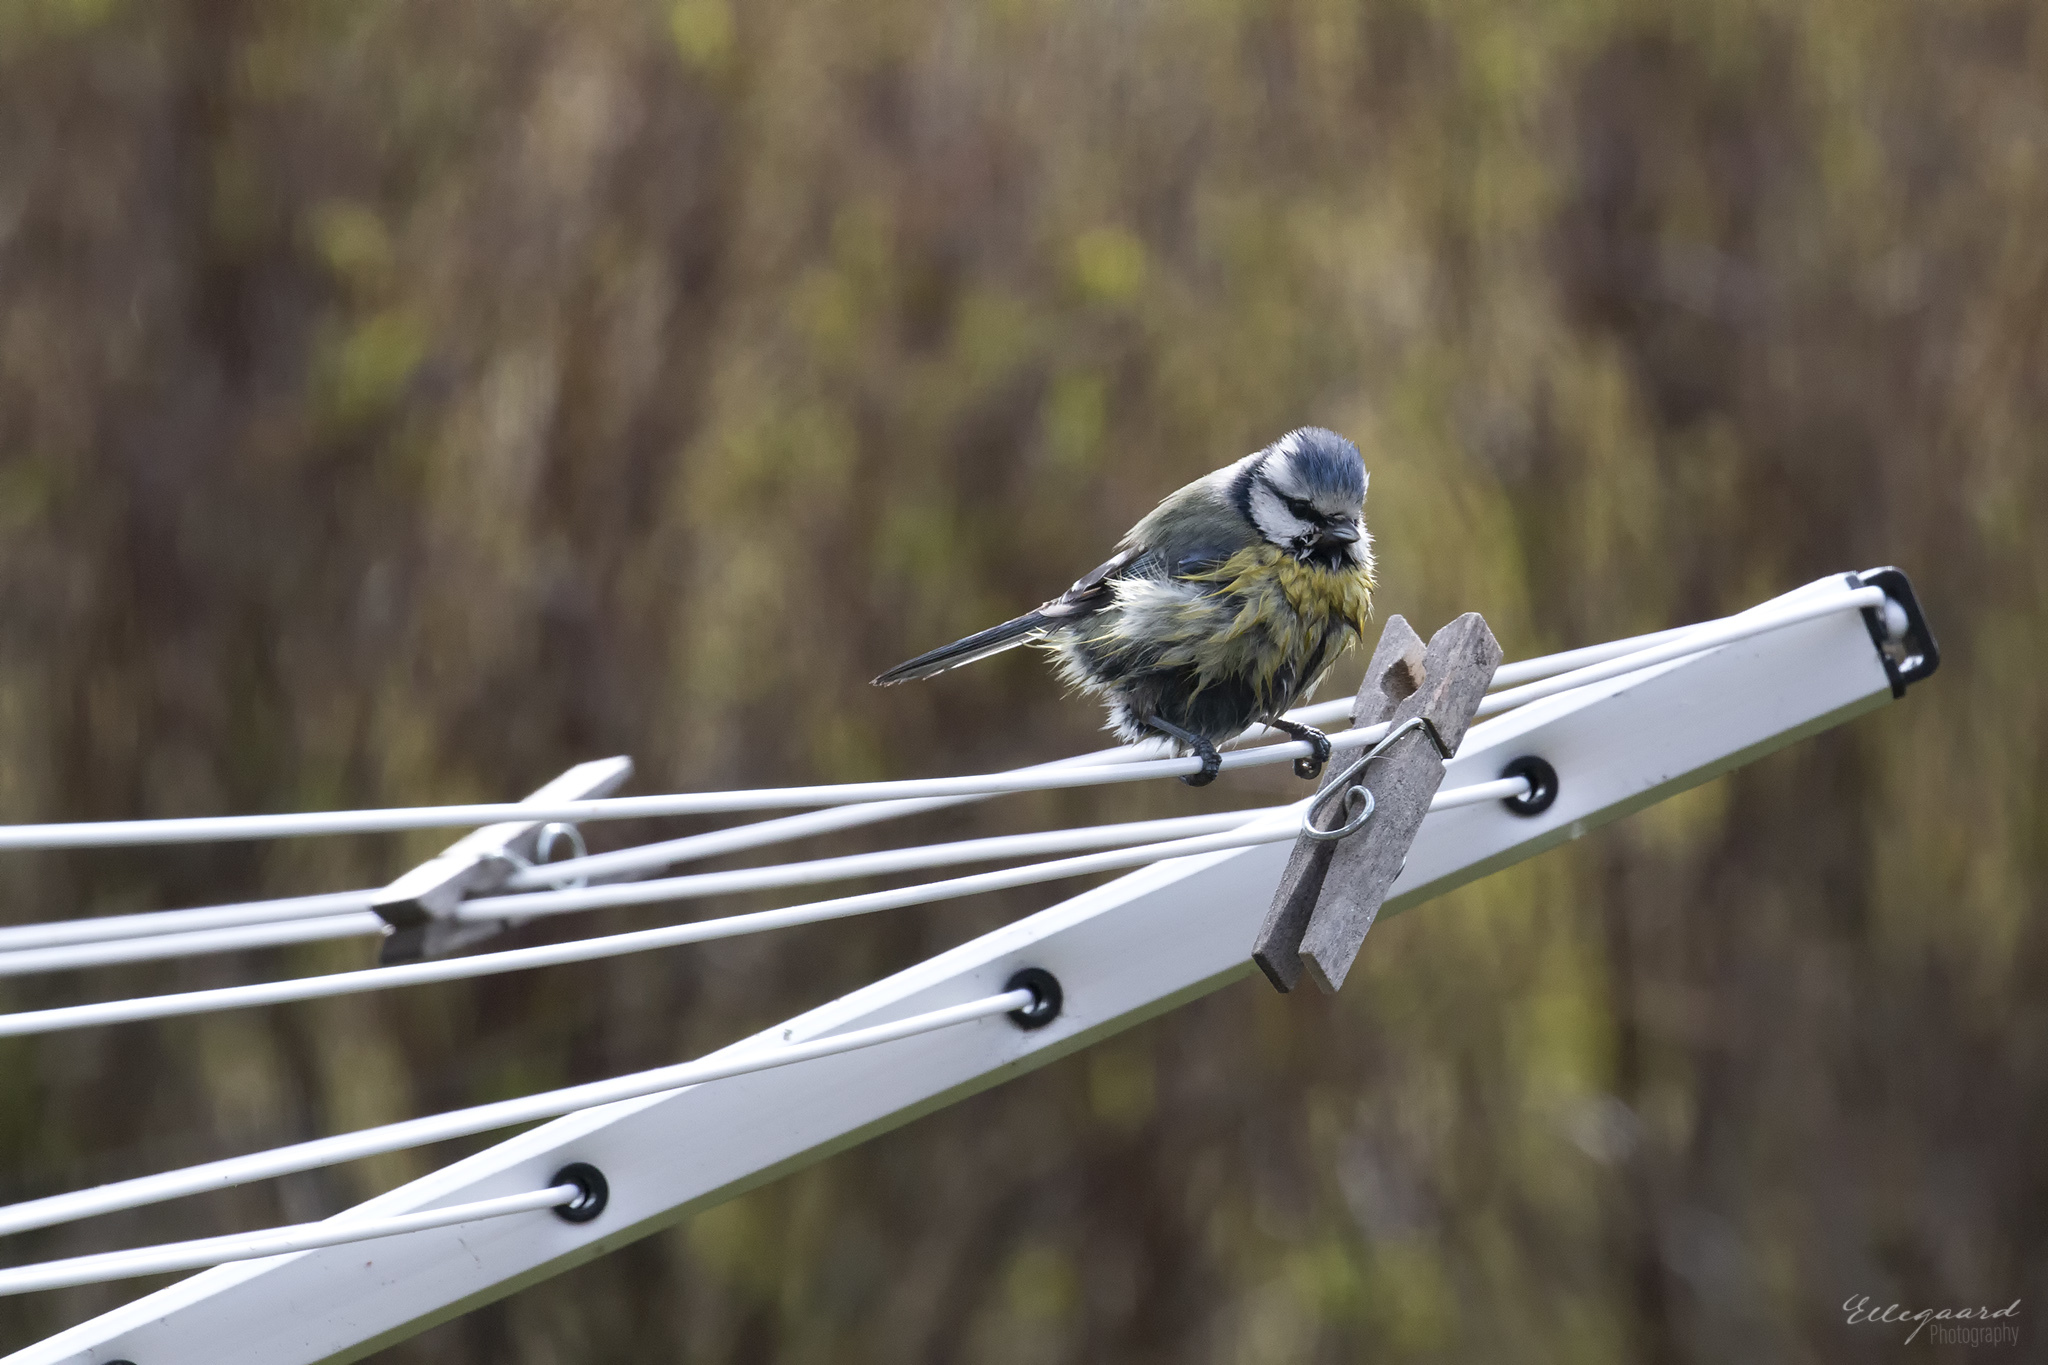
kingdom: Animalia
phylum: Chordata
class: Aves
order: Passeriformes
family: Paridae
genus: Cyanistes
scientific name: Cyanistes caeruleus
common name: Eurasian blue tit
